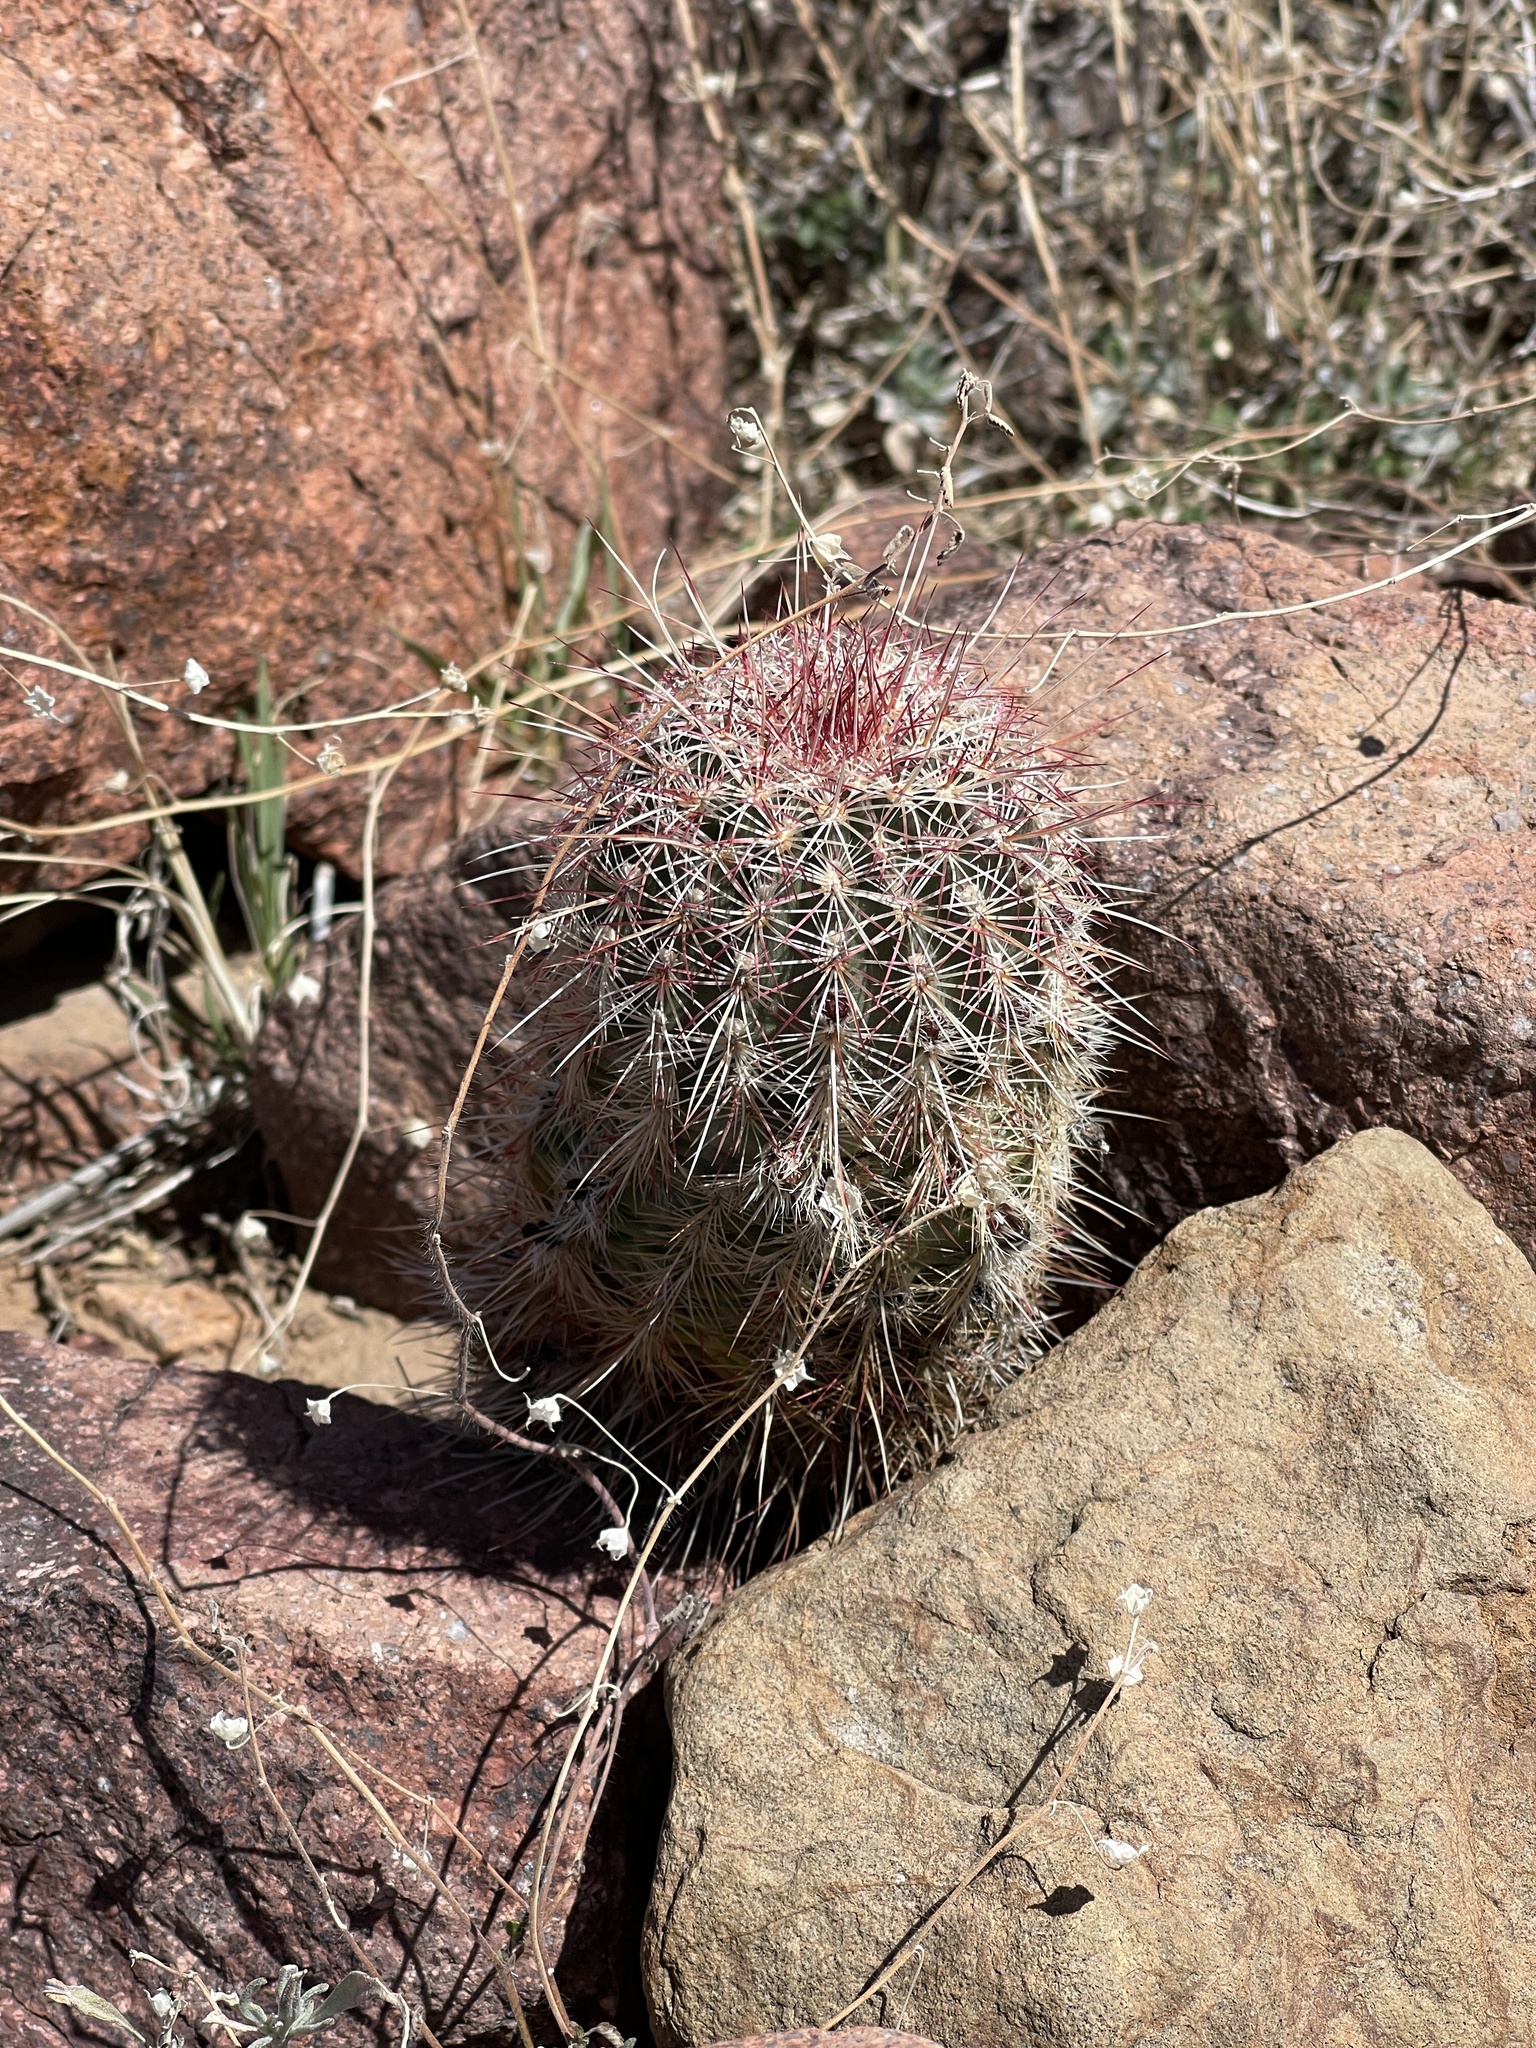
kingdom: Plantae
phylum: Tracheophyta
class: Magnoliopsida
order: Caryophyllales
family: Cactaceae
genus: Echinocereus
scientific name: Echinocereus viridiflorus
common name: Nylon hedgehog cactus
